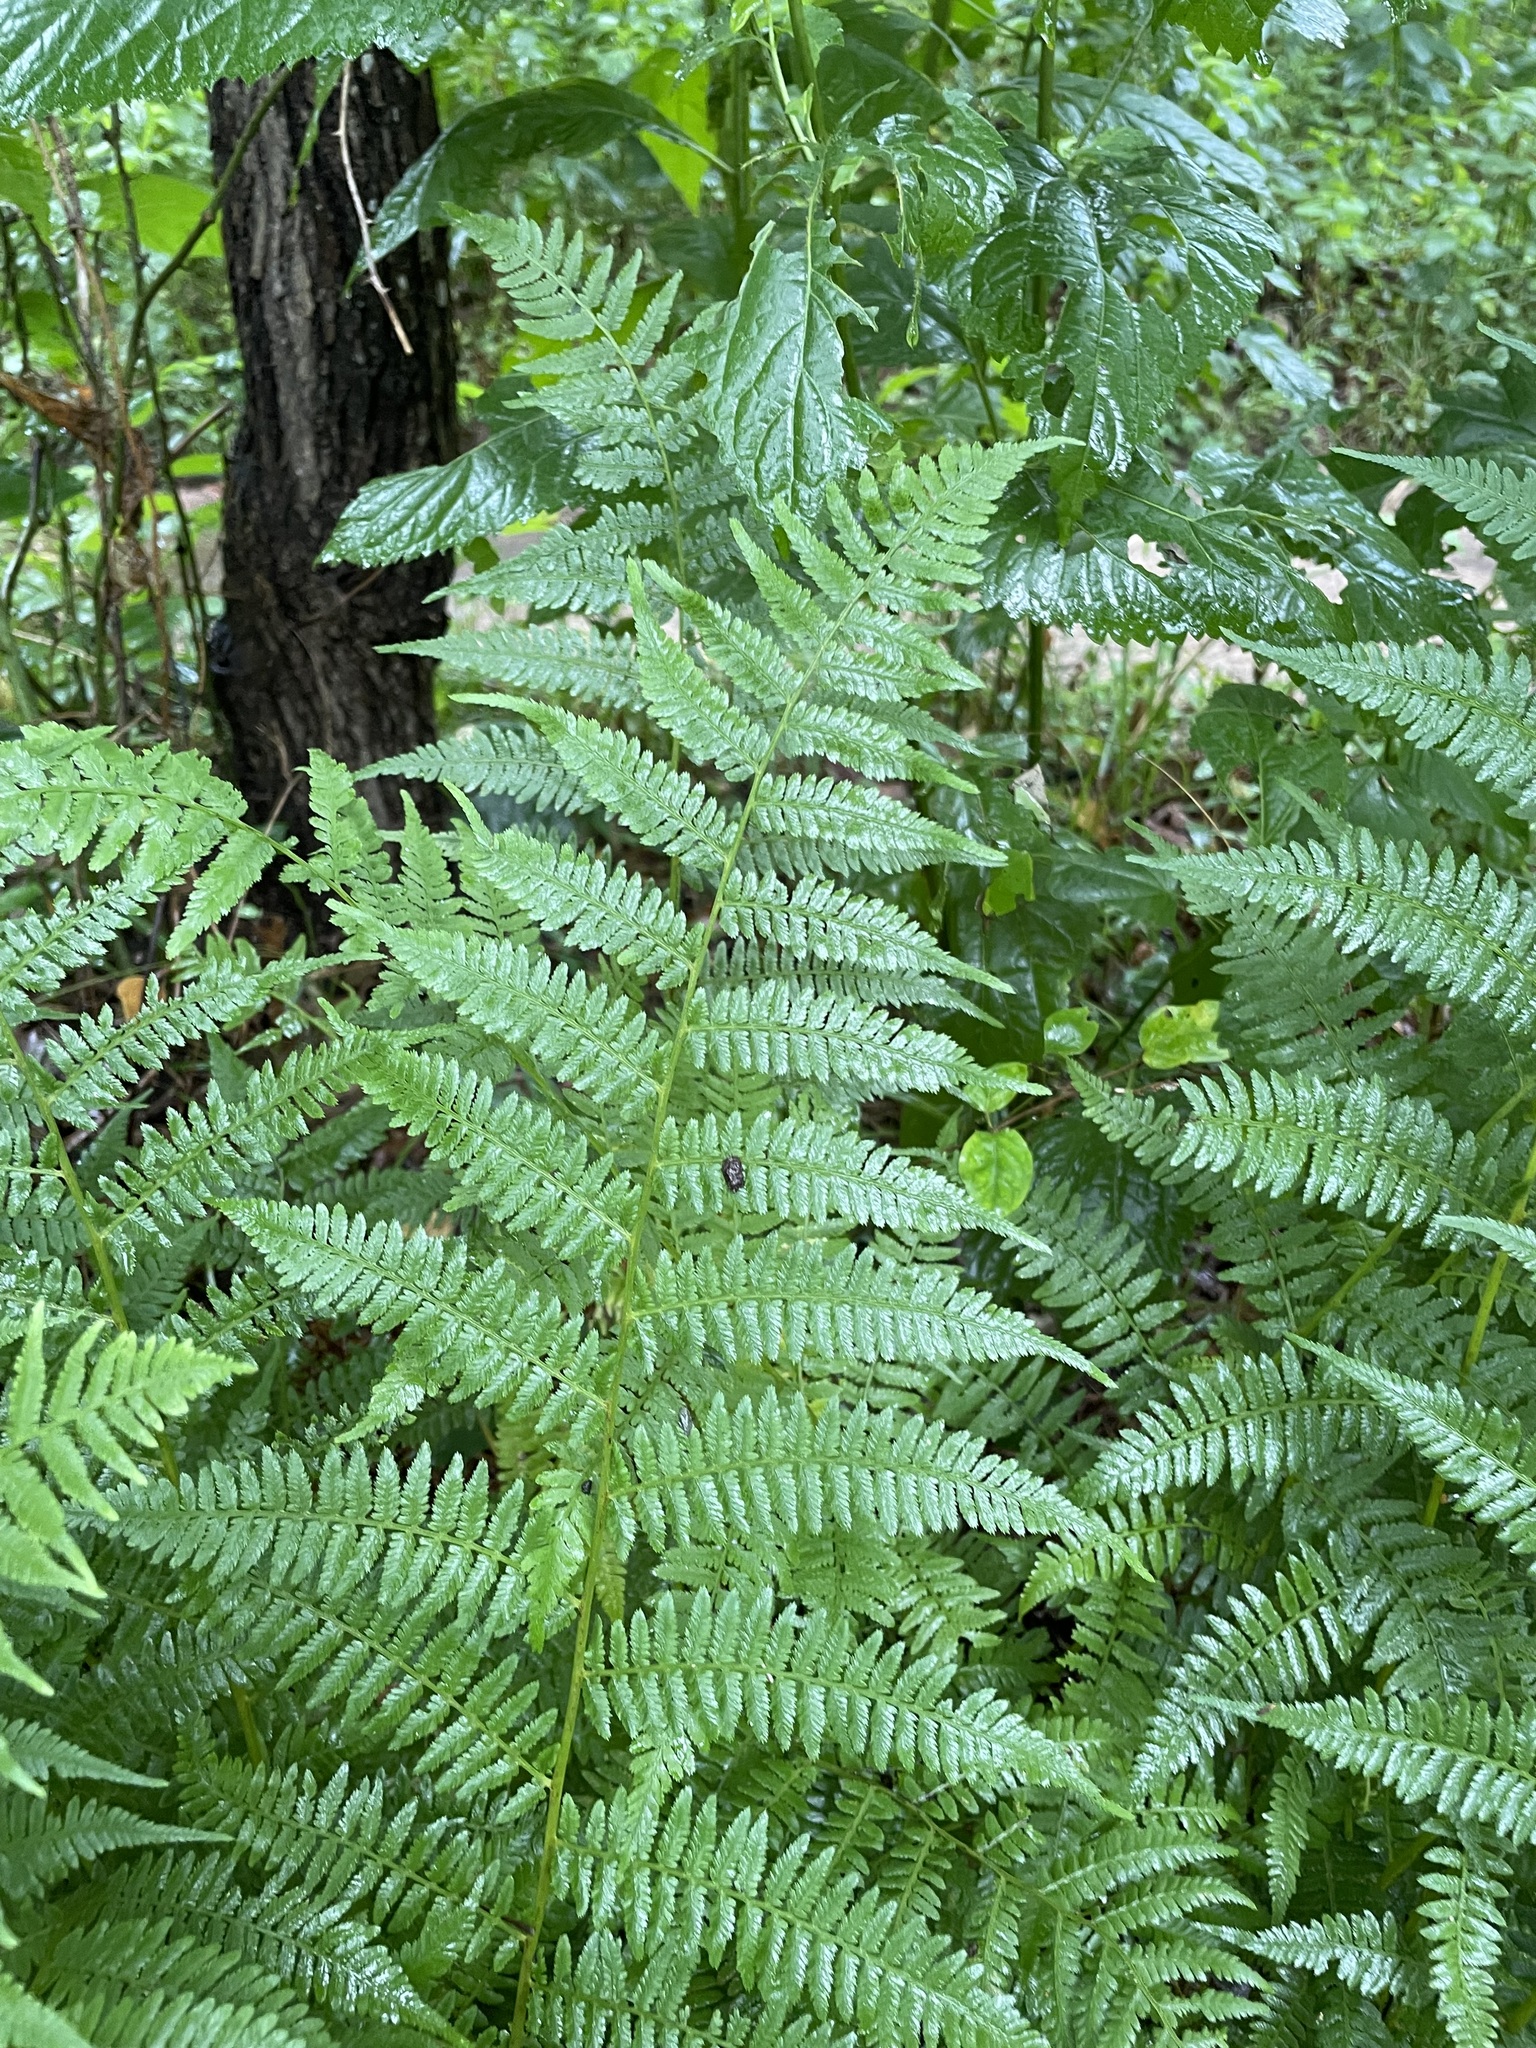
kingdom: Plantae
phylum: Tracheophyta
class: Polypodiopsida
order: Polypodiales
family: Athyriaceae
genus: Athyrium
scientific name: Athyrium asplenioides
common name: Southern lady fern
